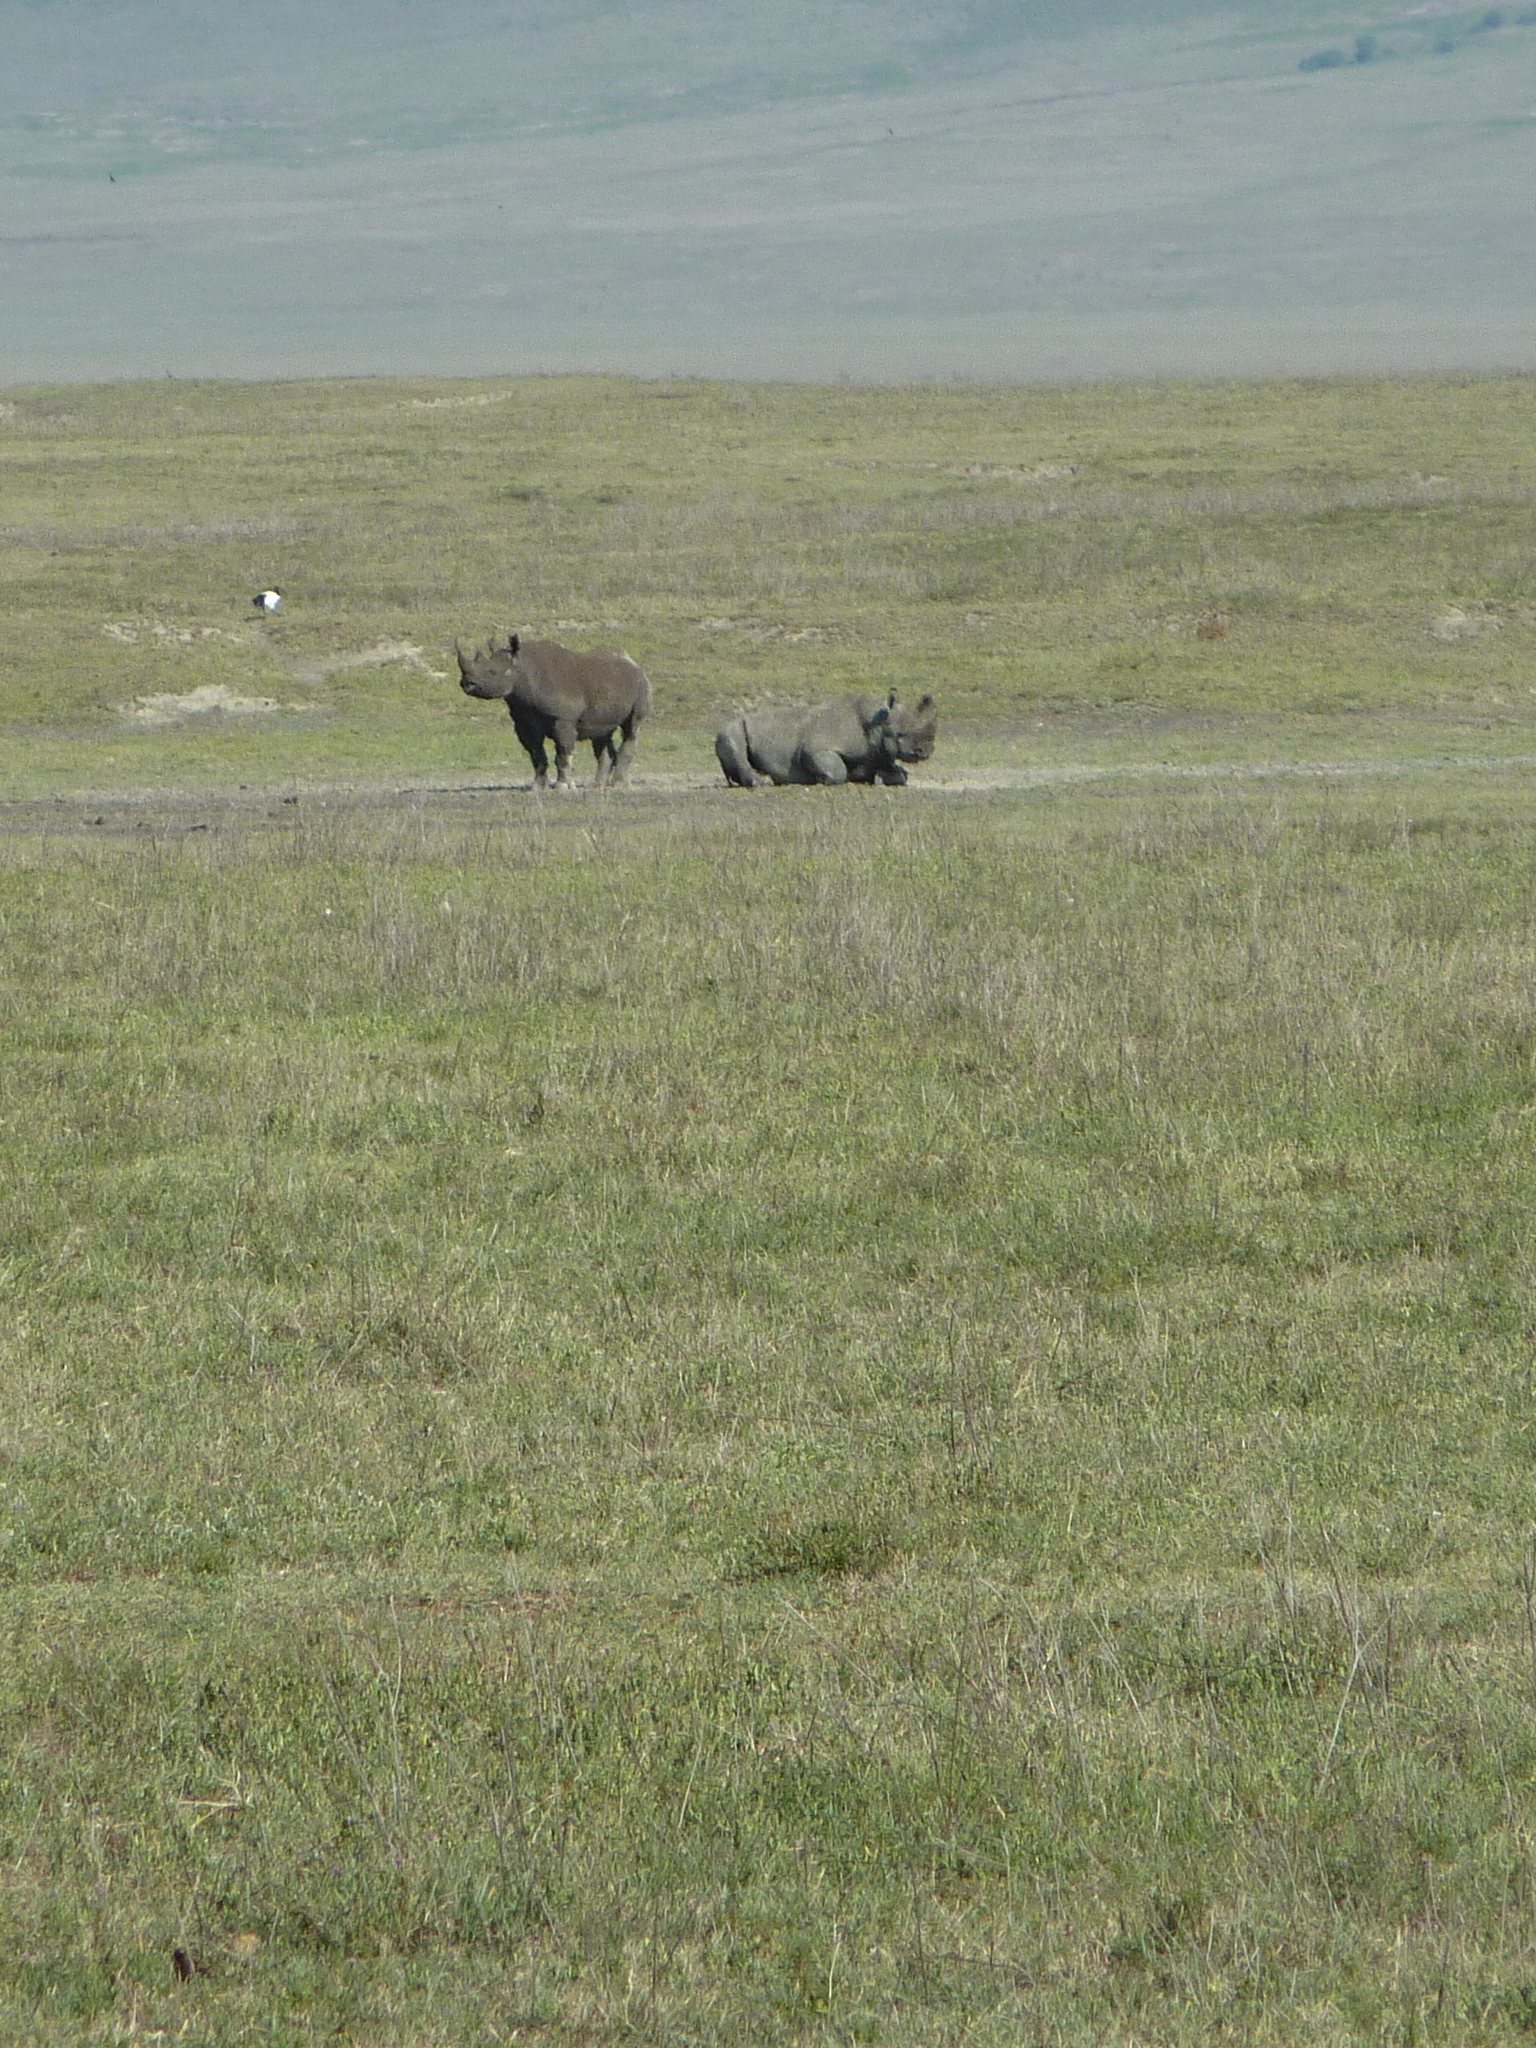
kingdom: Animalia
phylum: Chordata
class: Mammalia
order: Perissodactyla
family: Rhinocerotidae
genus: Diceros
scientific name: Diceros bicornis
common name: Black rhinoceros
